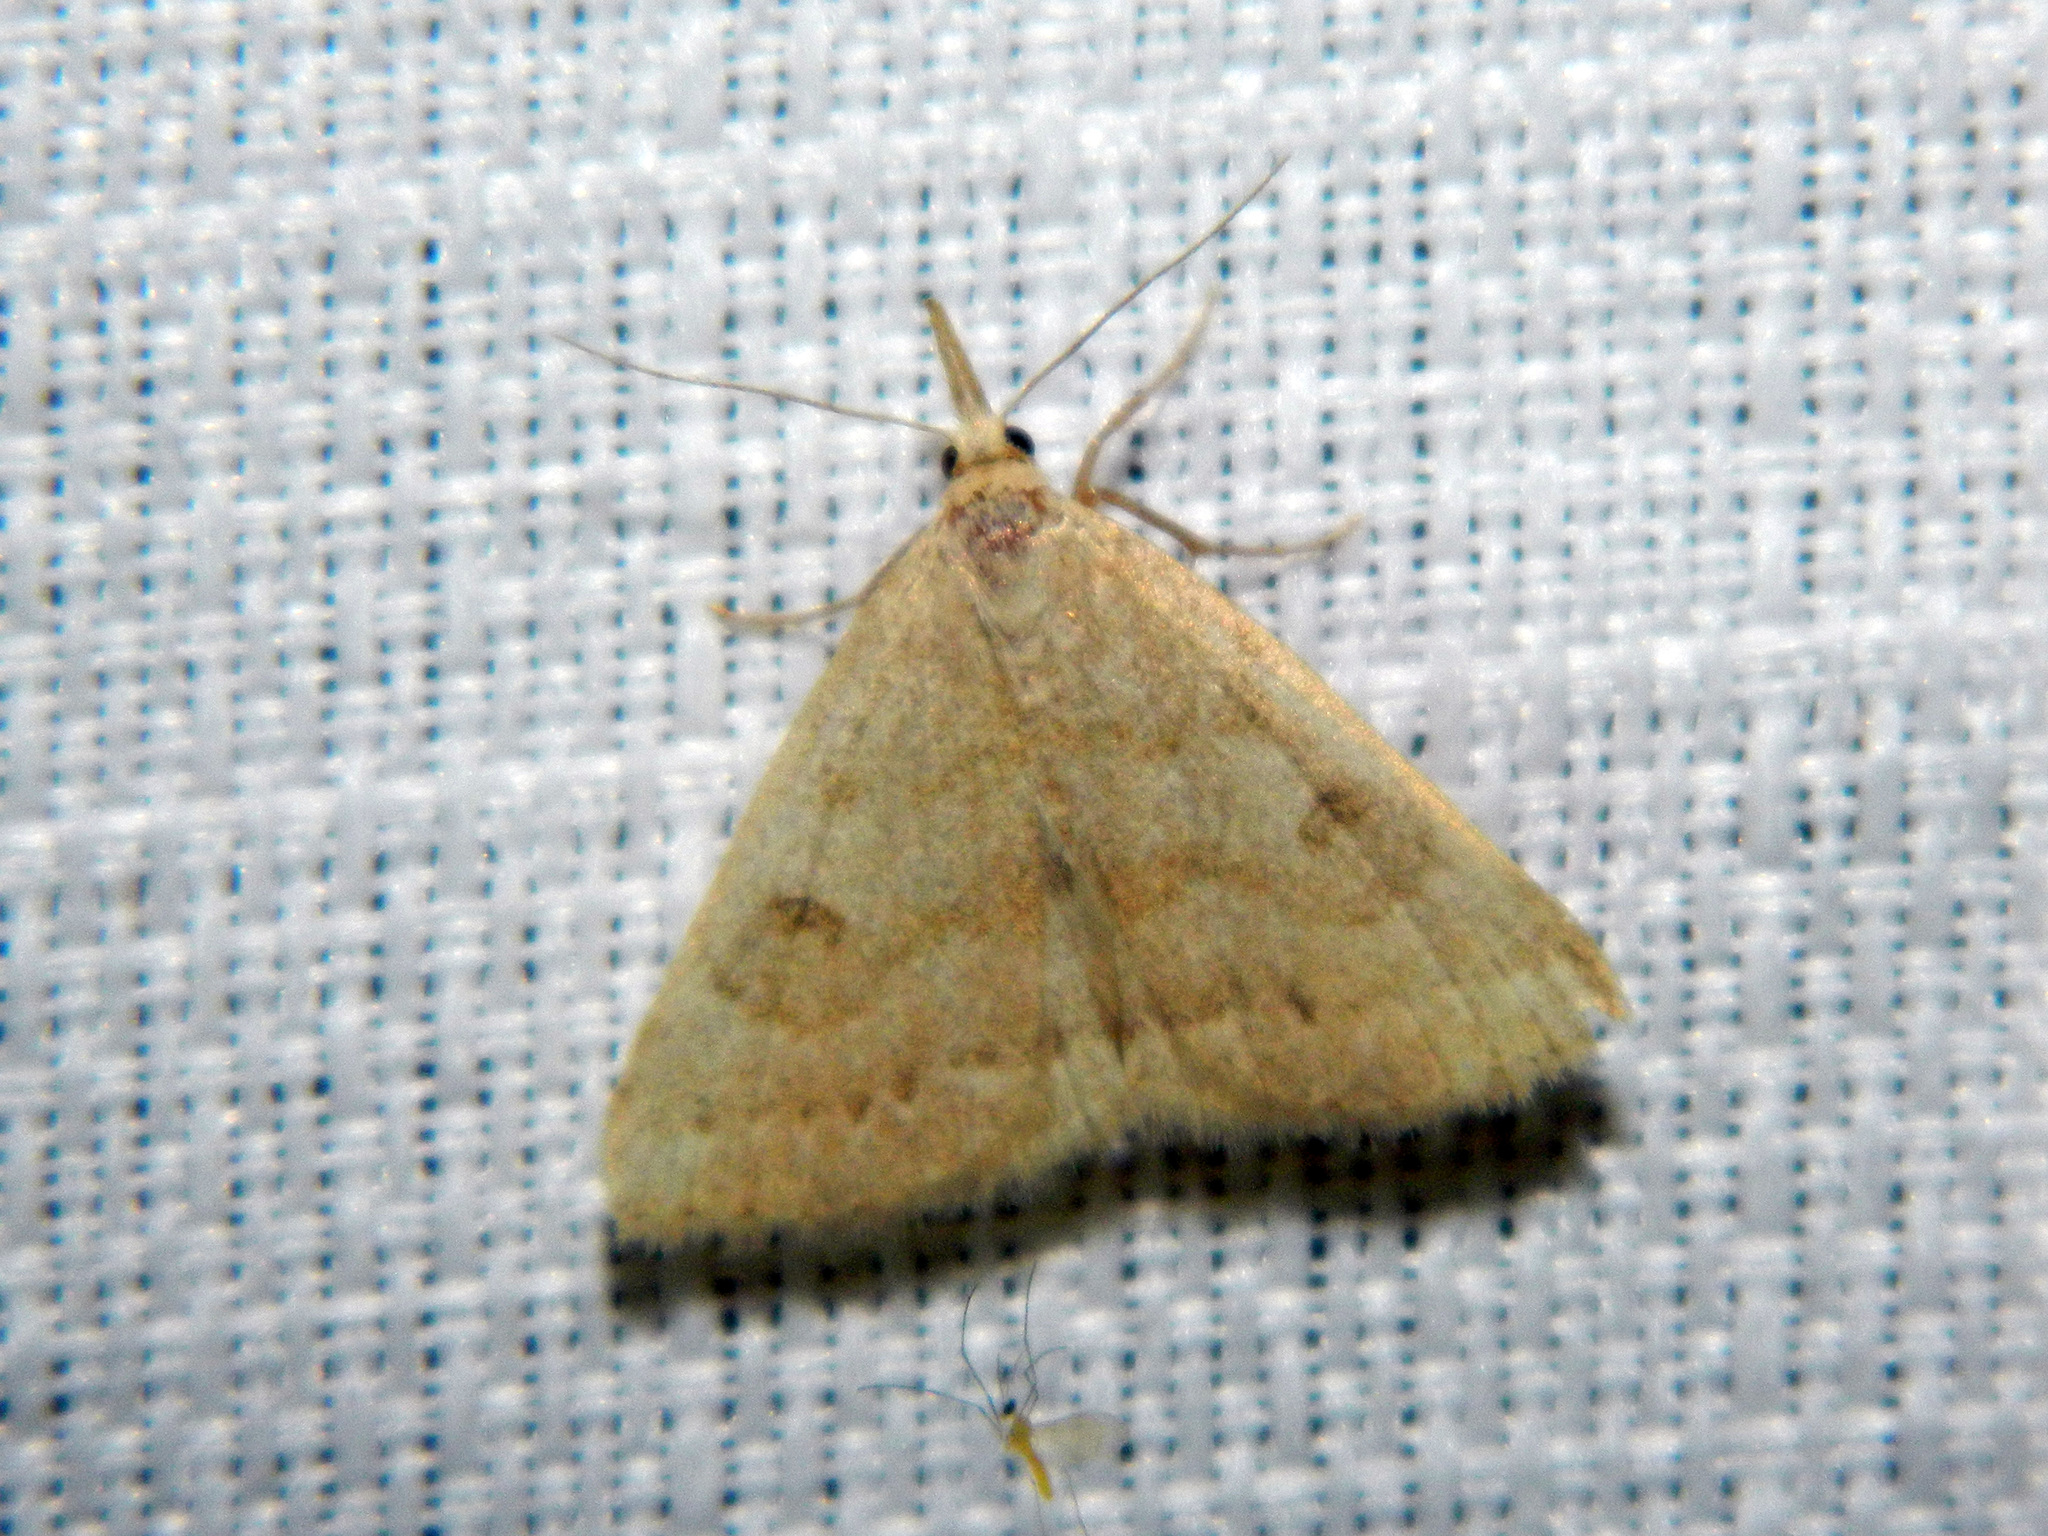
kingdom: Animalia
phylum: Arthropoda
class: Insecta
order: Lepidoptera
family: Erebidae
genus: Macrochilo
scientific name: Macrochilo morbidalis
